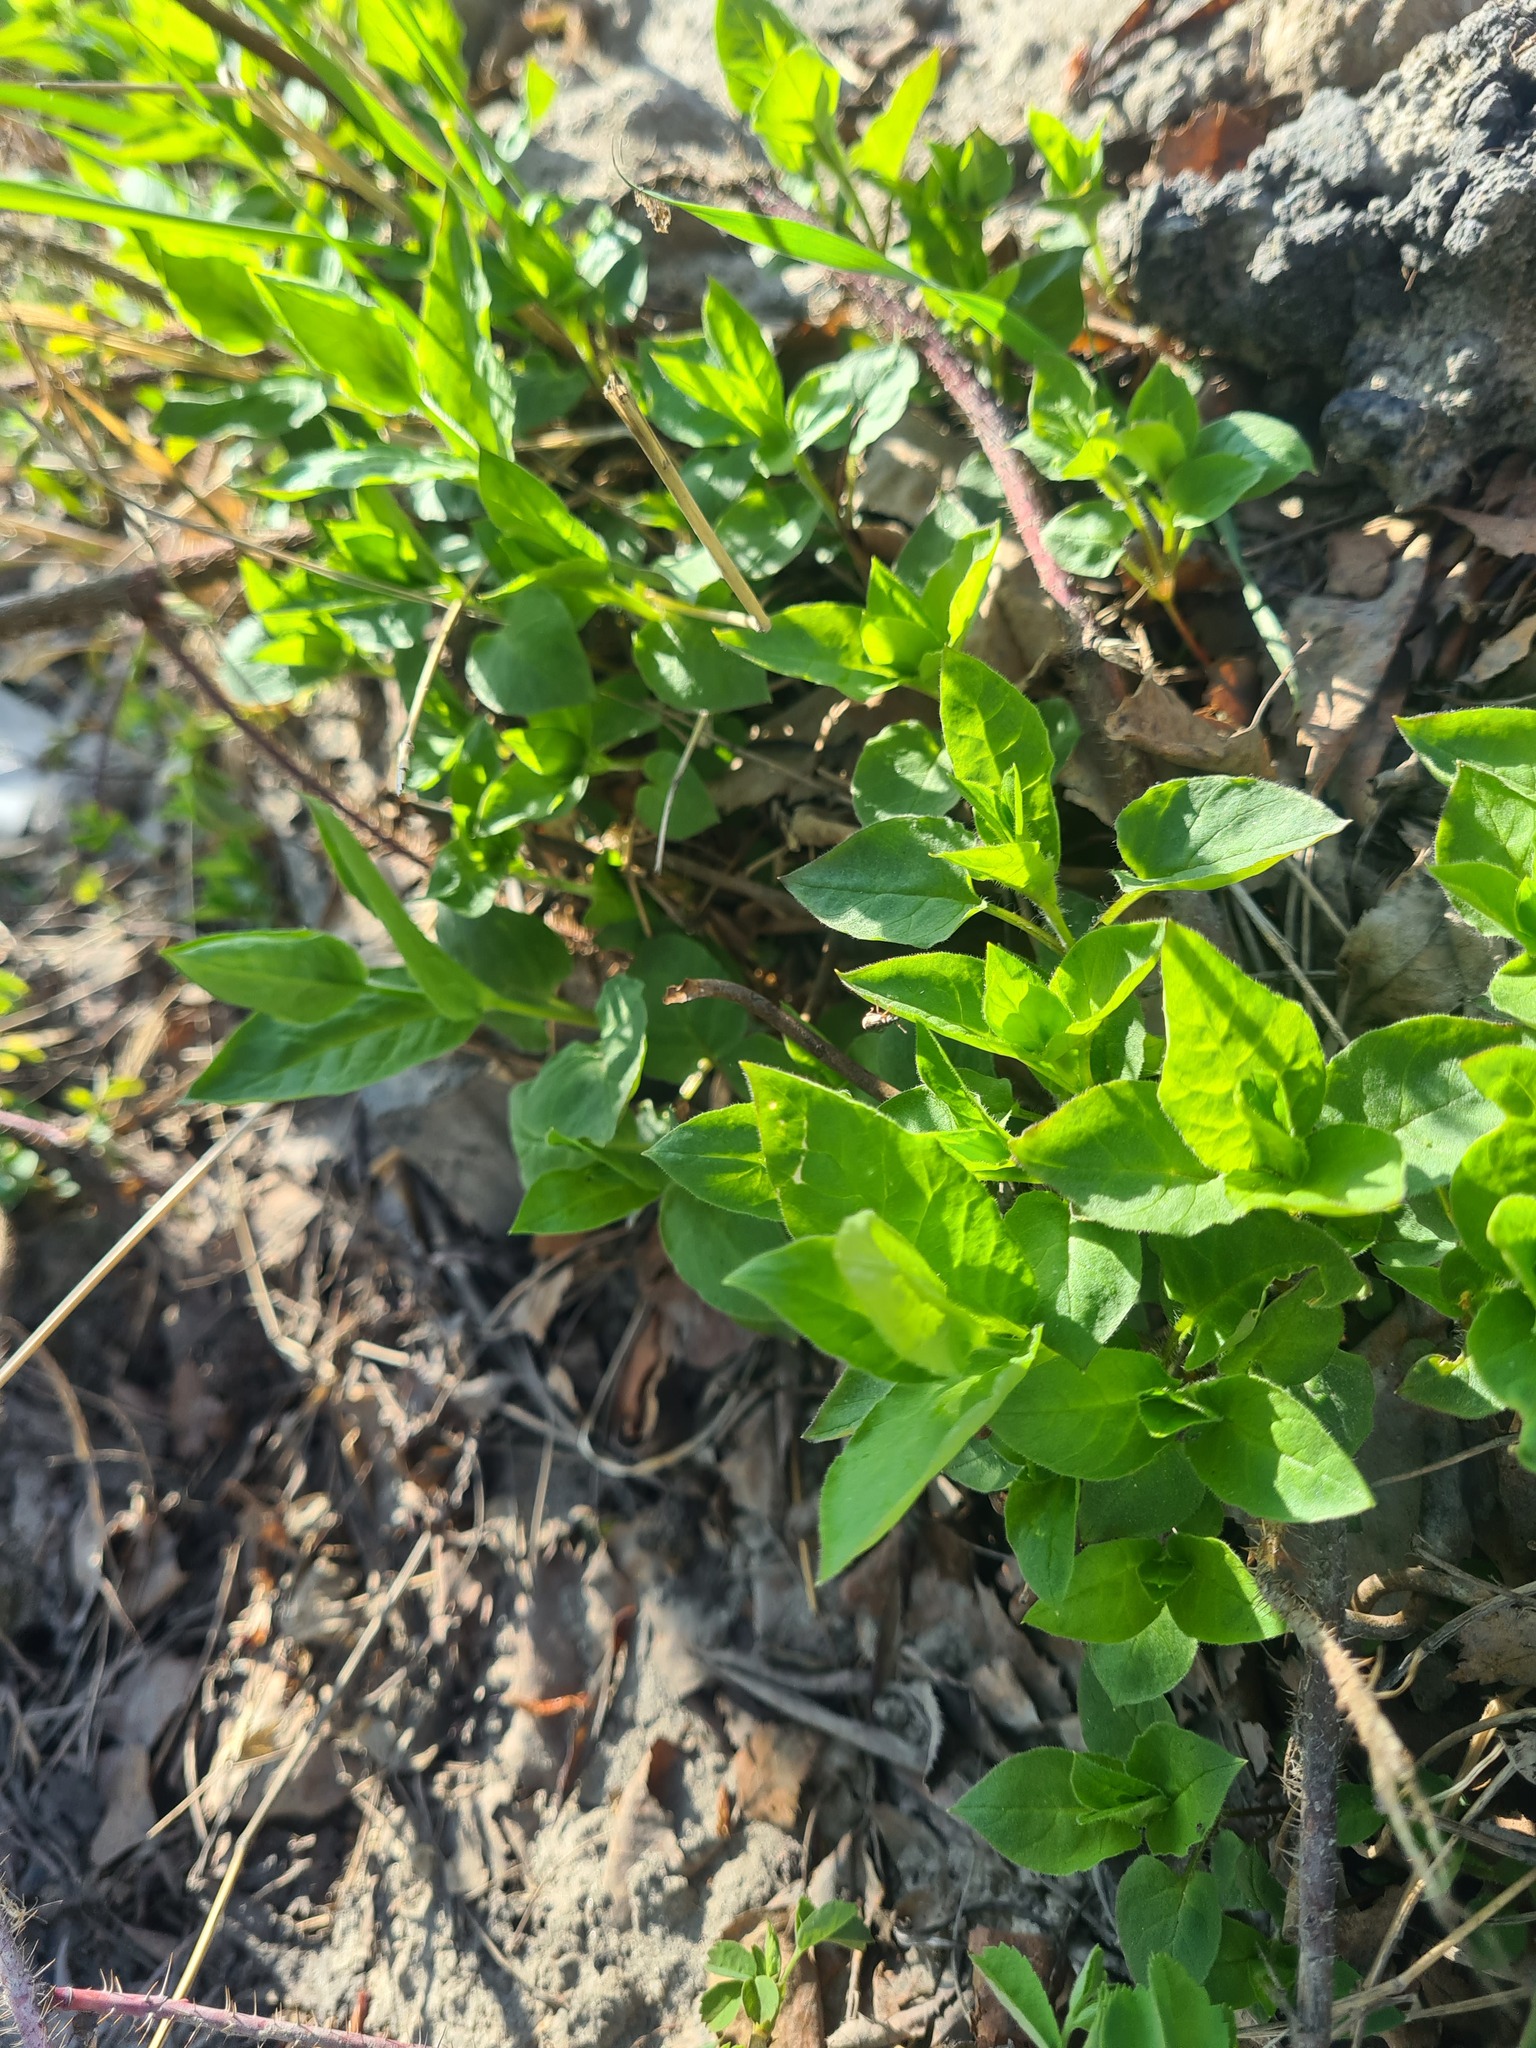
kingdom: Plantae
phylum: Tracheophyta
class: Magnoliopsida
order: Caryophyllales
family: Caryophyllaceae
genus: Stellaria
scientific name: Stellaria bungeana
